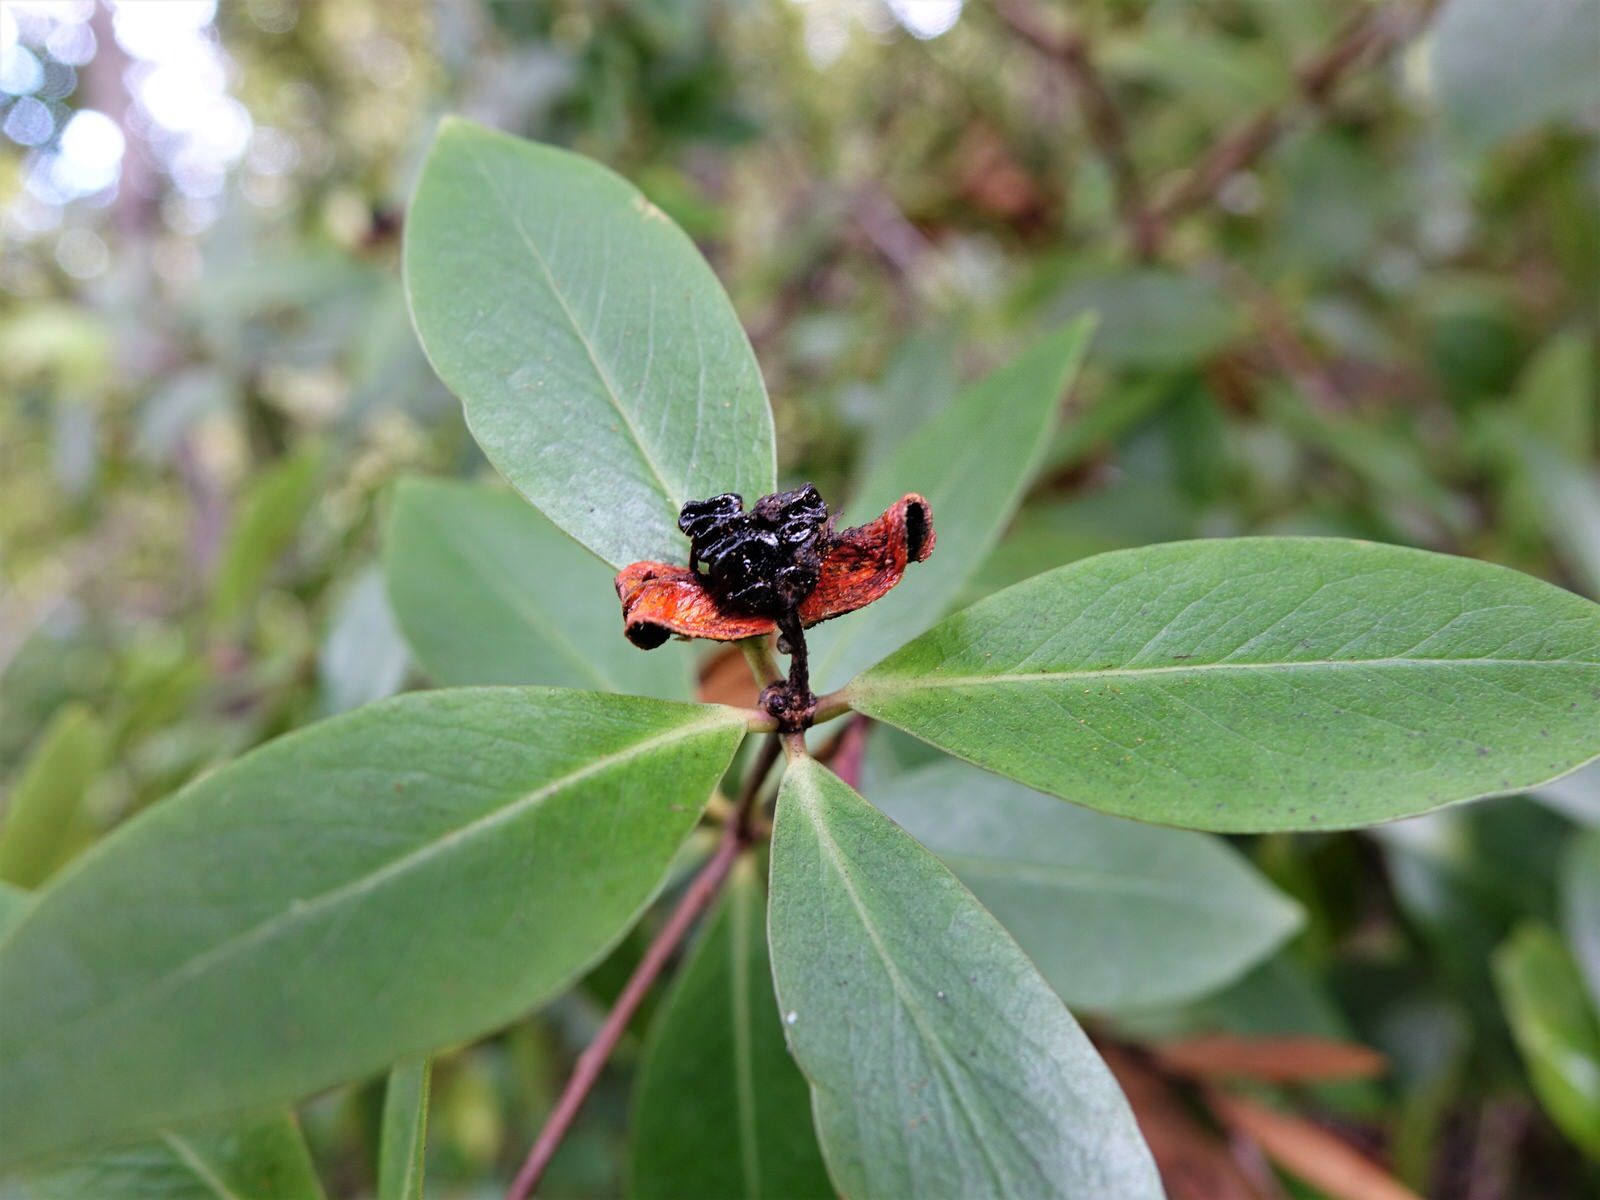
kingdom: Plantae
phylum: Tracheophyta
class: Magnoliopsida
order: Apiales
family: Pittosporaceae
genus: Pittosporum
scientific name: Pittosporum cornifolium
